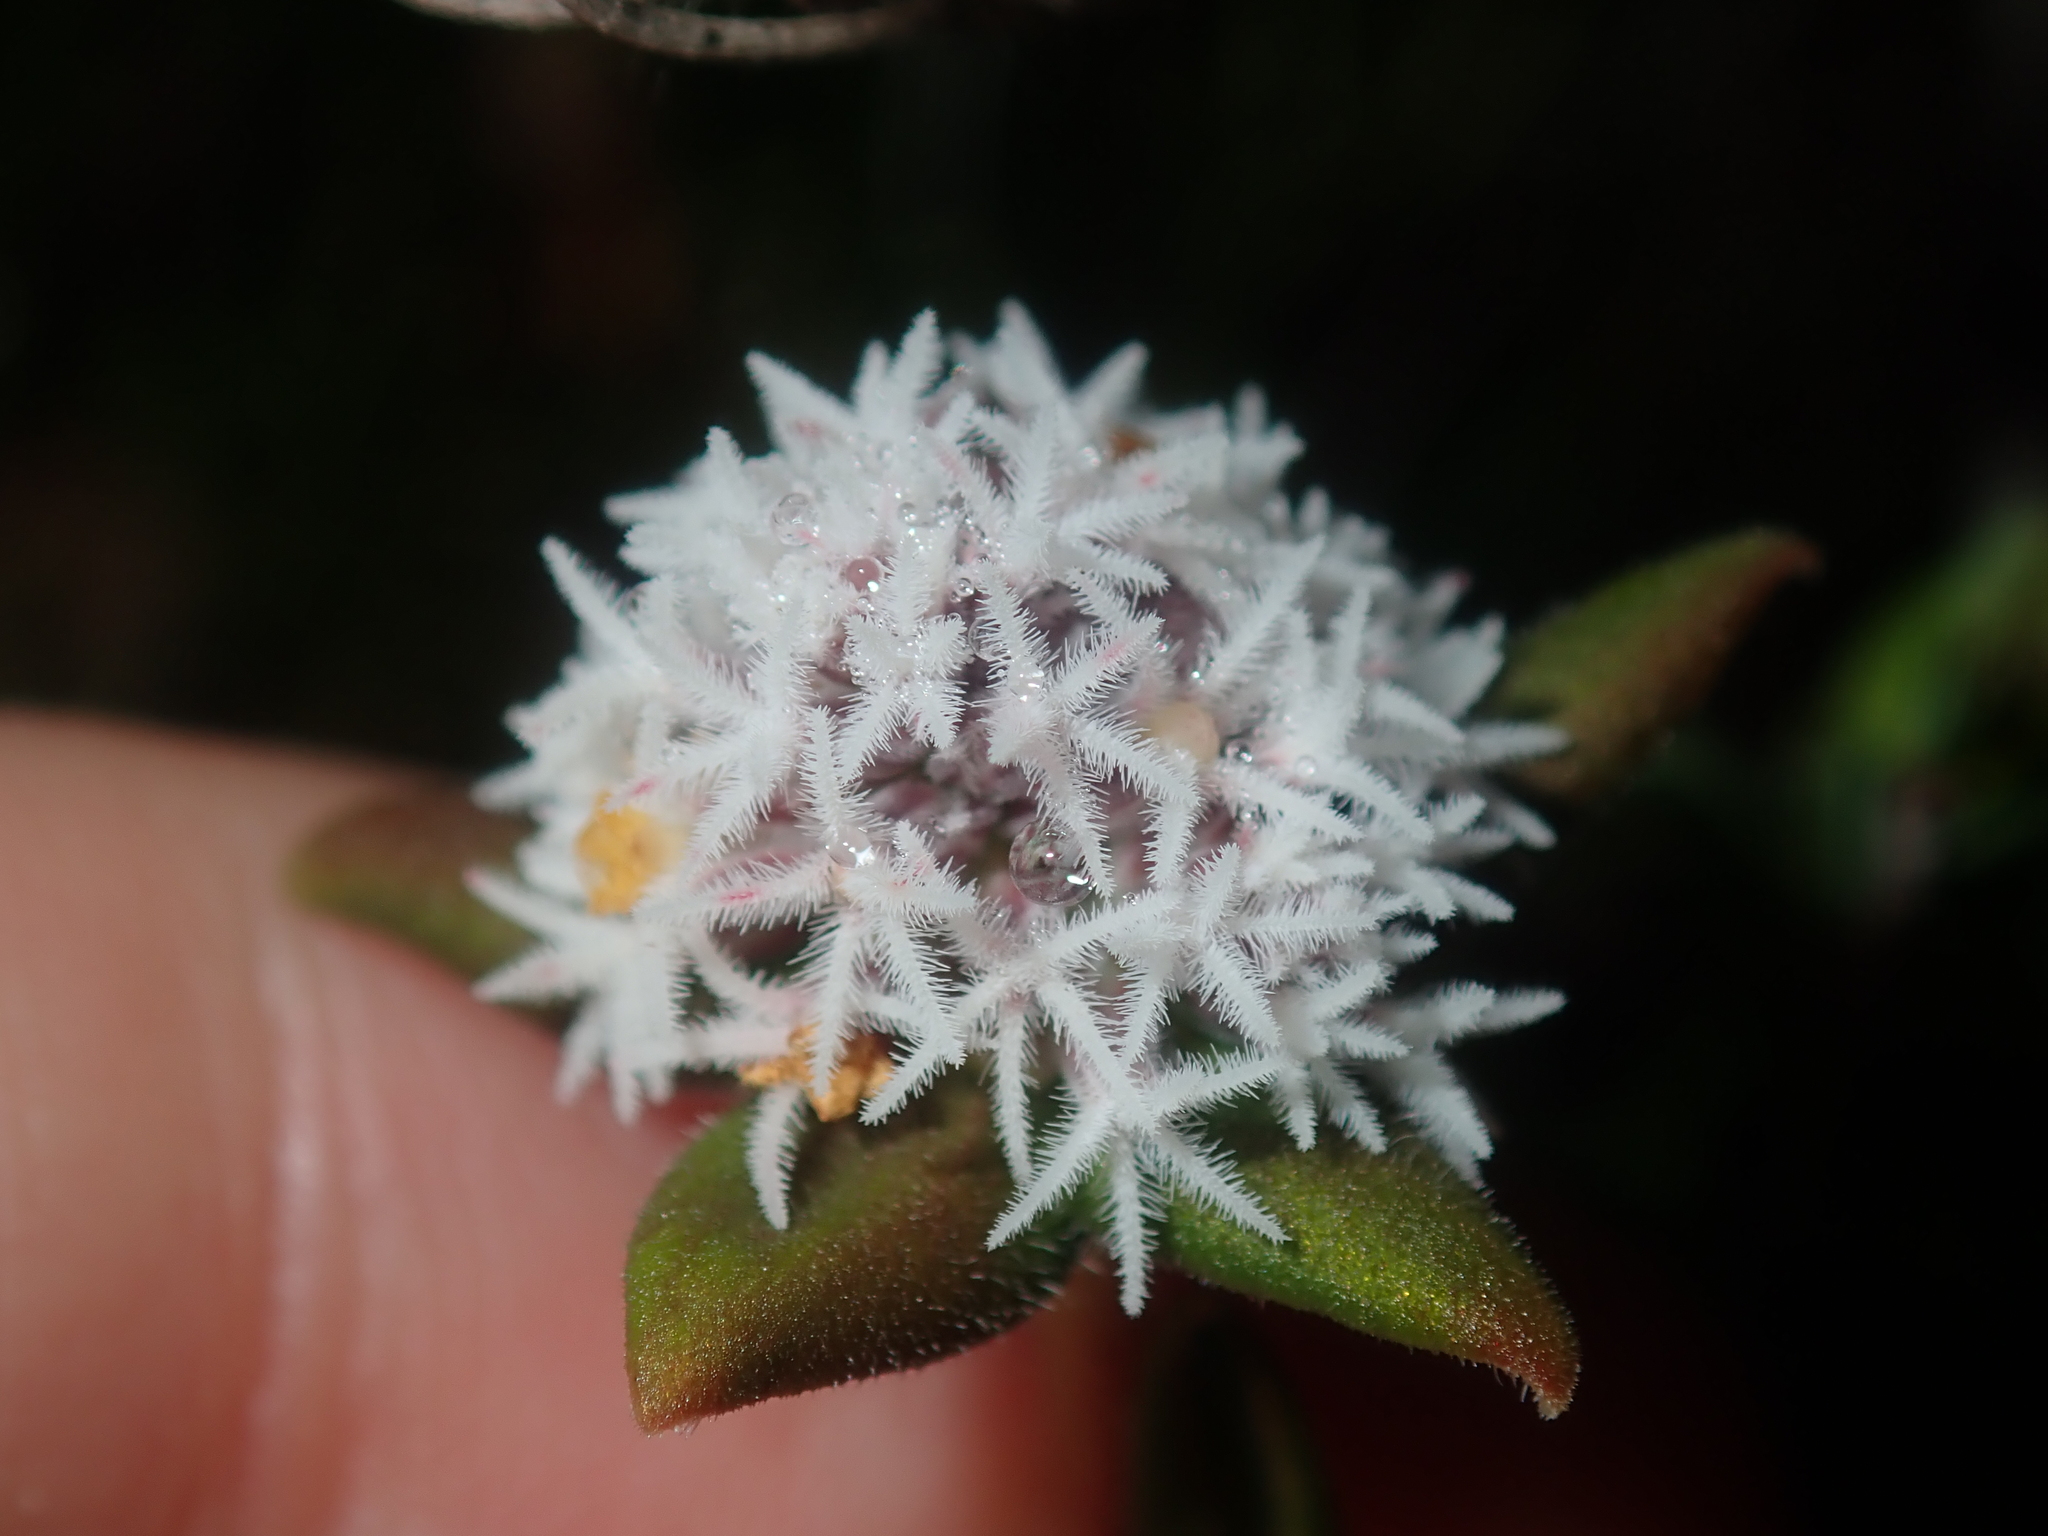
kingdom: Plantae
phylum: Tracheophyta
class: Magnoliopsida
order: Ericales
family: Ericaceae
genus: Leucopogon
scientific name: Leucopogon plumuliflorus
